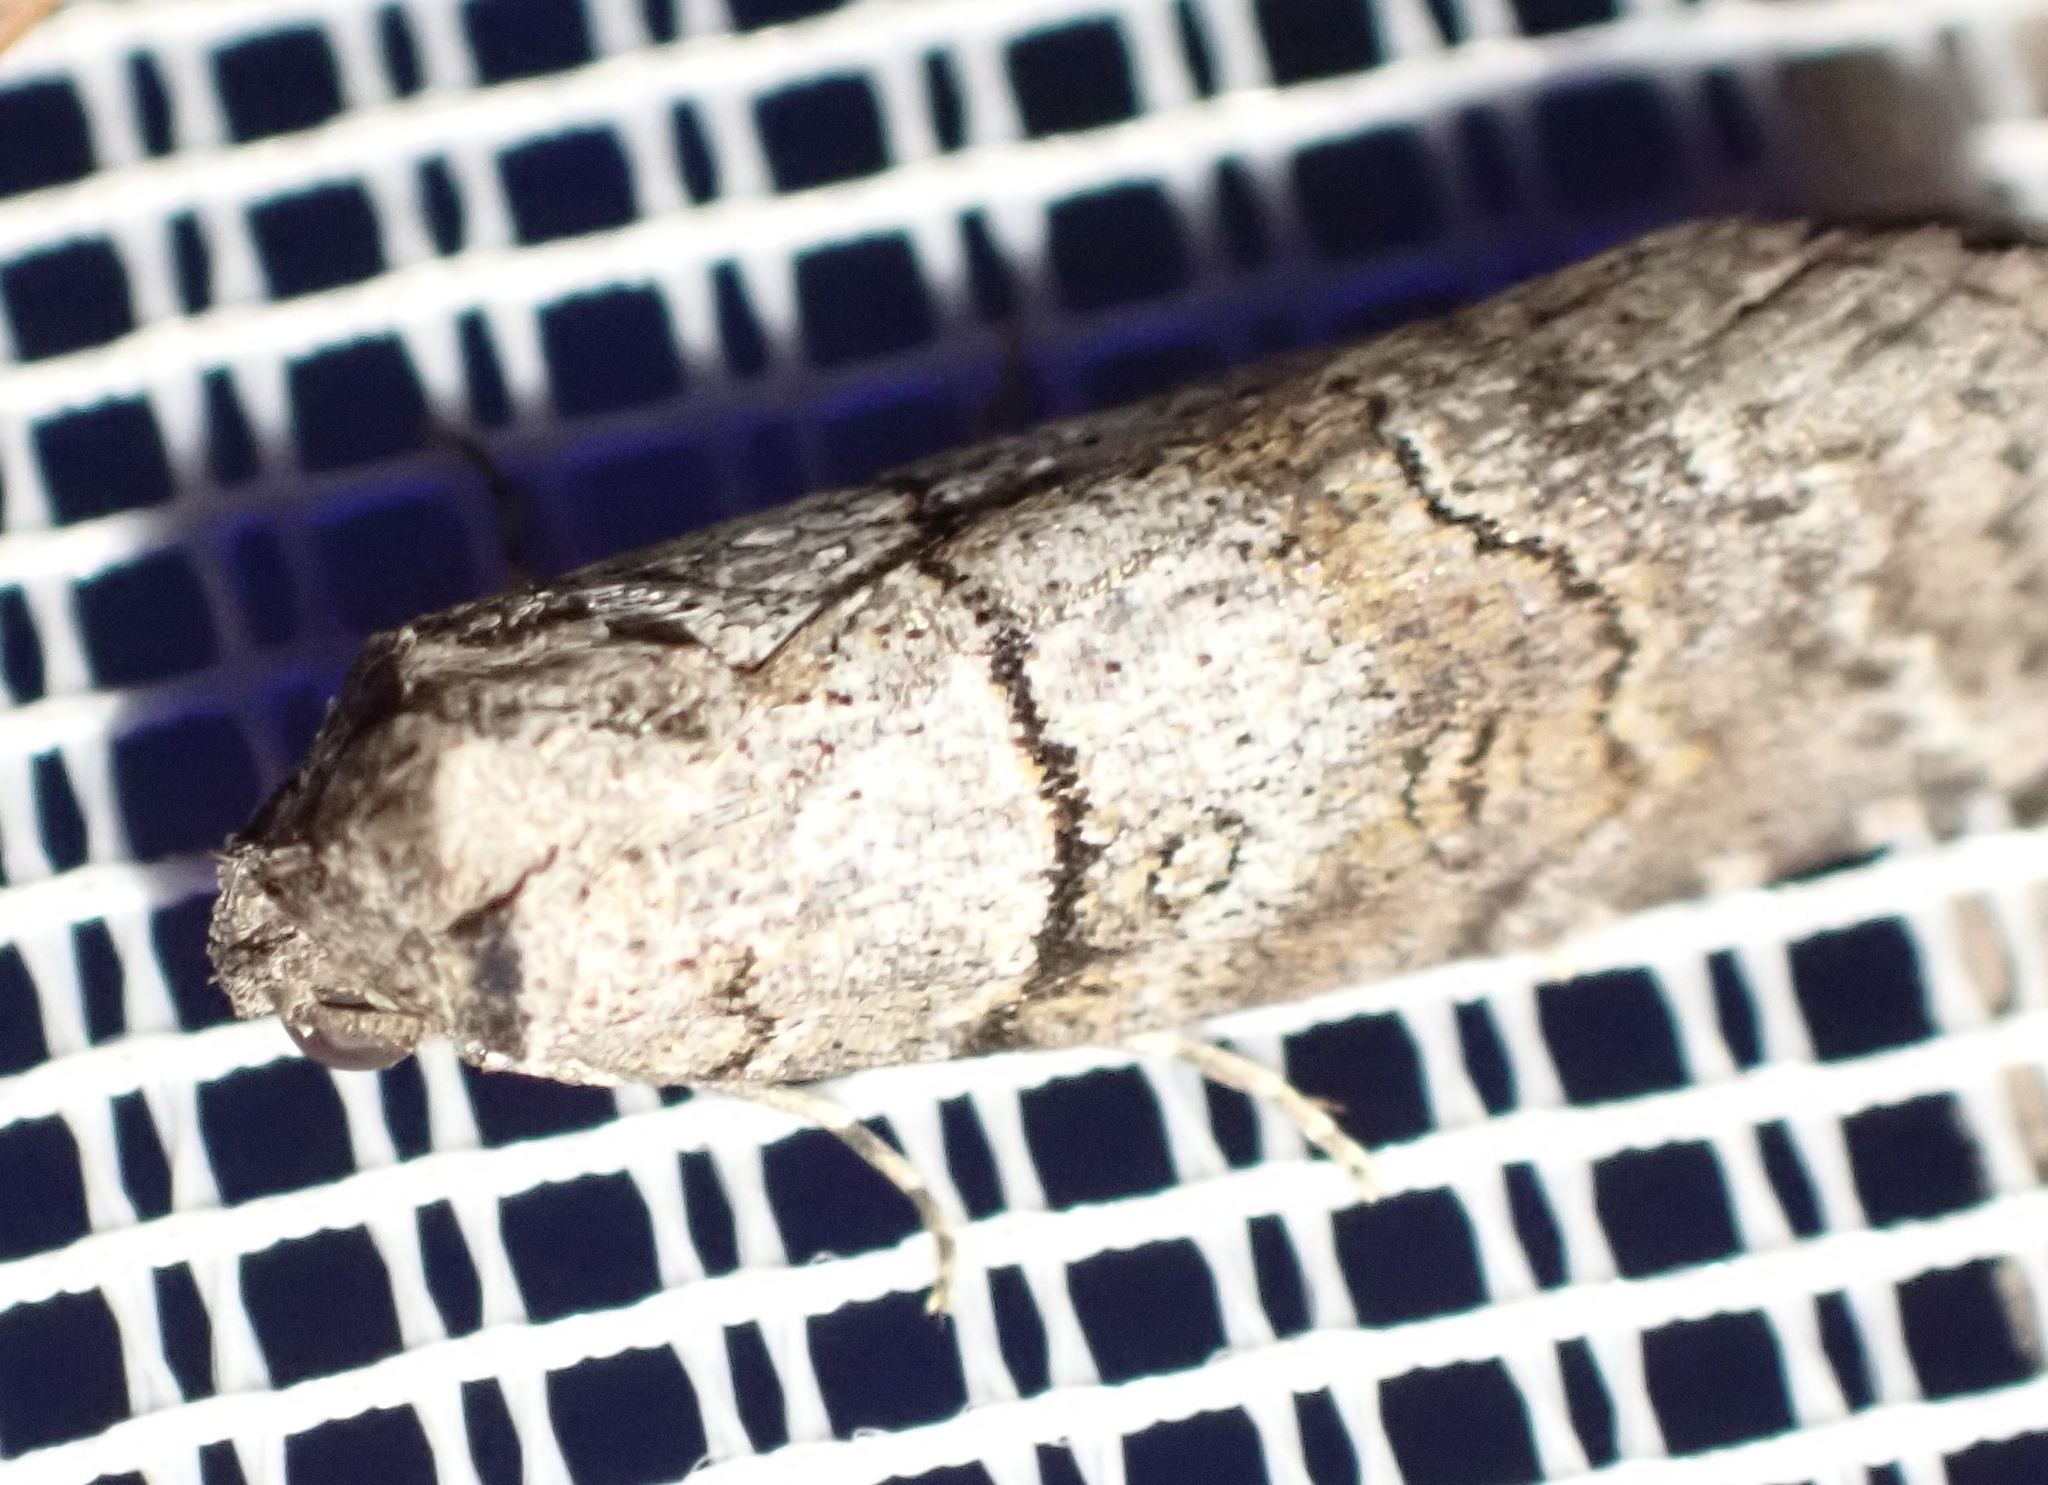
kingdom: Animalia
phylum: Arthropoda
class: Insecta
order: Lepidoptera
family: Nolidae
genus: Calathusa
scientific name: Calathusa hypotherma
